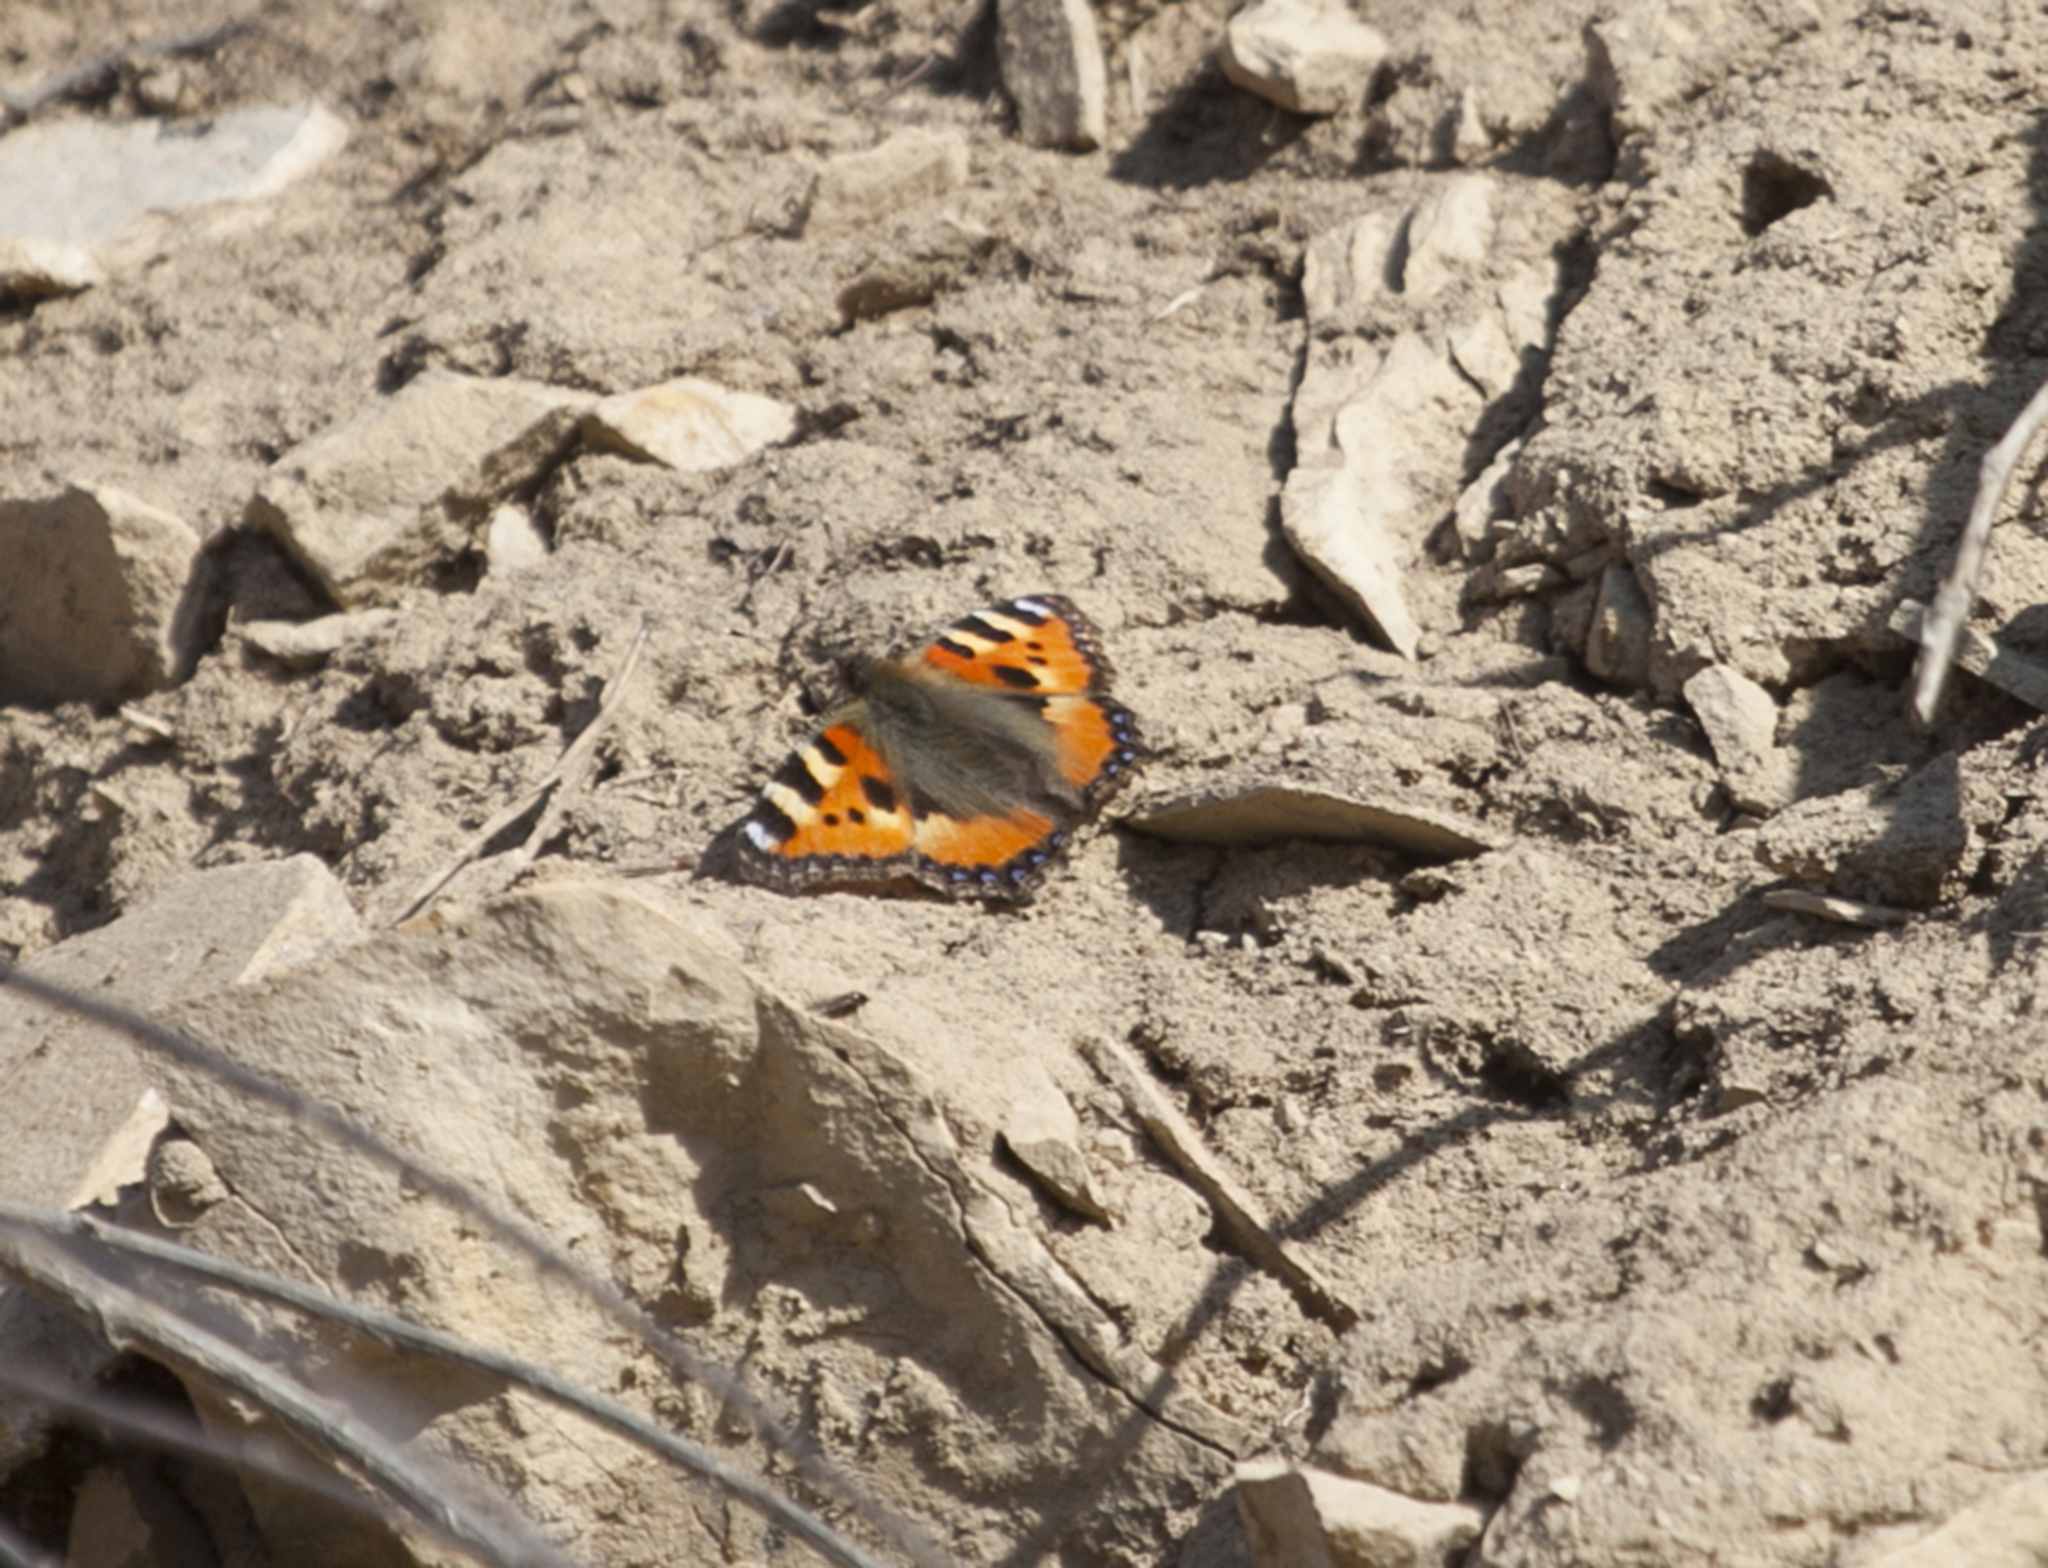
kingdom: Animalia
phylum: Arthropoda
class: Insecta
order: Lepidoptera
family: Nymphalidae
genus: Aglais
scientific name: Aglais urticae
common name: Small tortoiseshell
